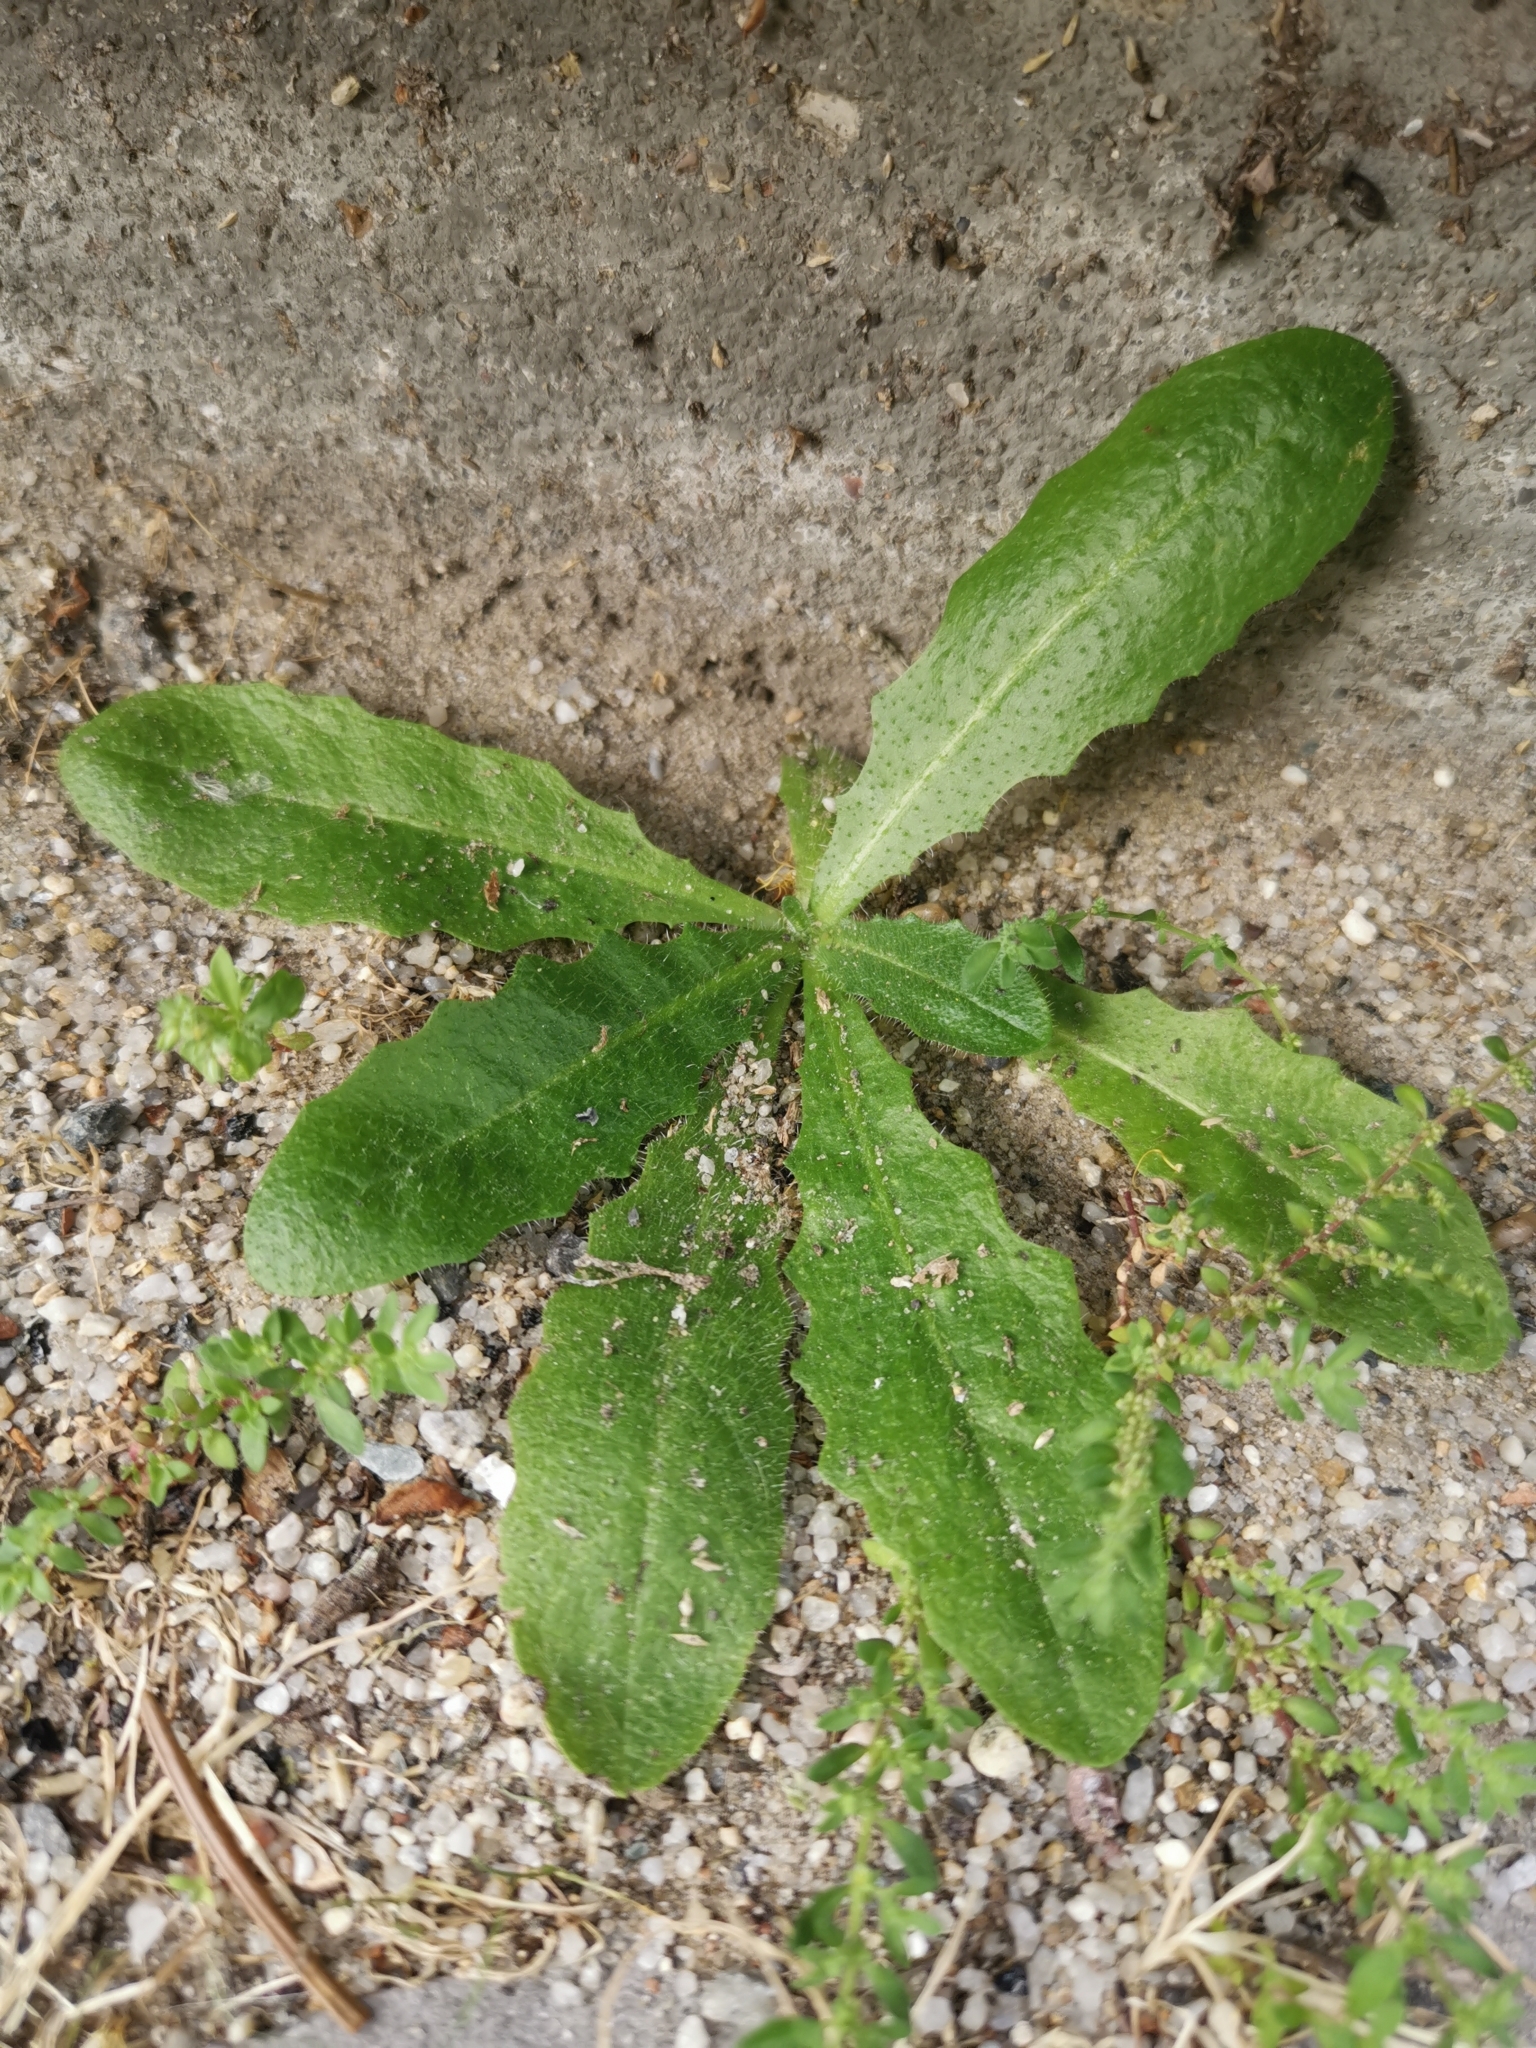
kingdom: Plantae
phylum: Tracheophyta
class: Magnoliopsida
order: Asterales
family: Asteraceae
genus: Hypochaeris
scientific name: Hypochaeris radicata
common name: Flatweed
